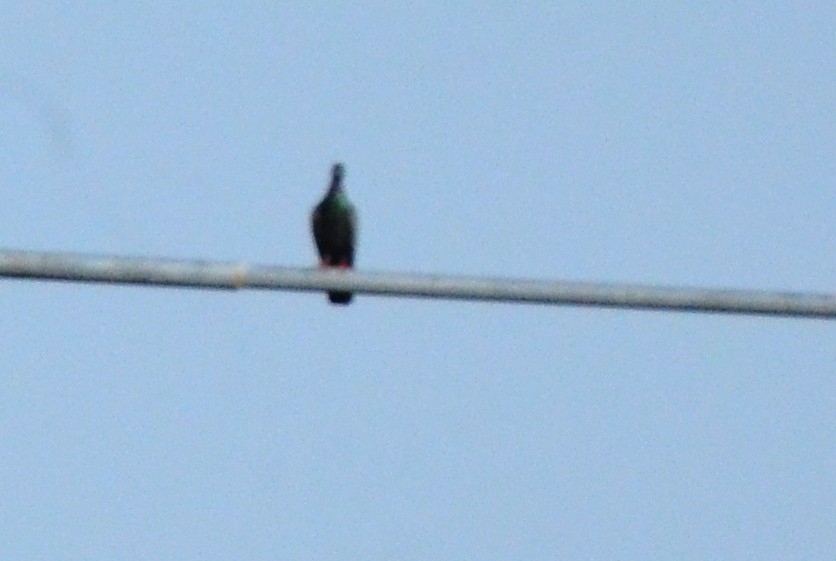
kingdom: Animalia
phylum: Chordata
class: Aves
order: Columbiformes
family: Columbidae
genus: Columba
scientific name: Columba livia
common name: Rock pigeon
